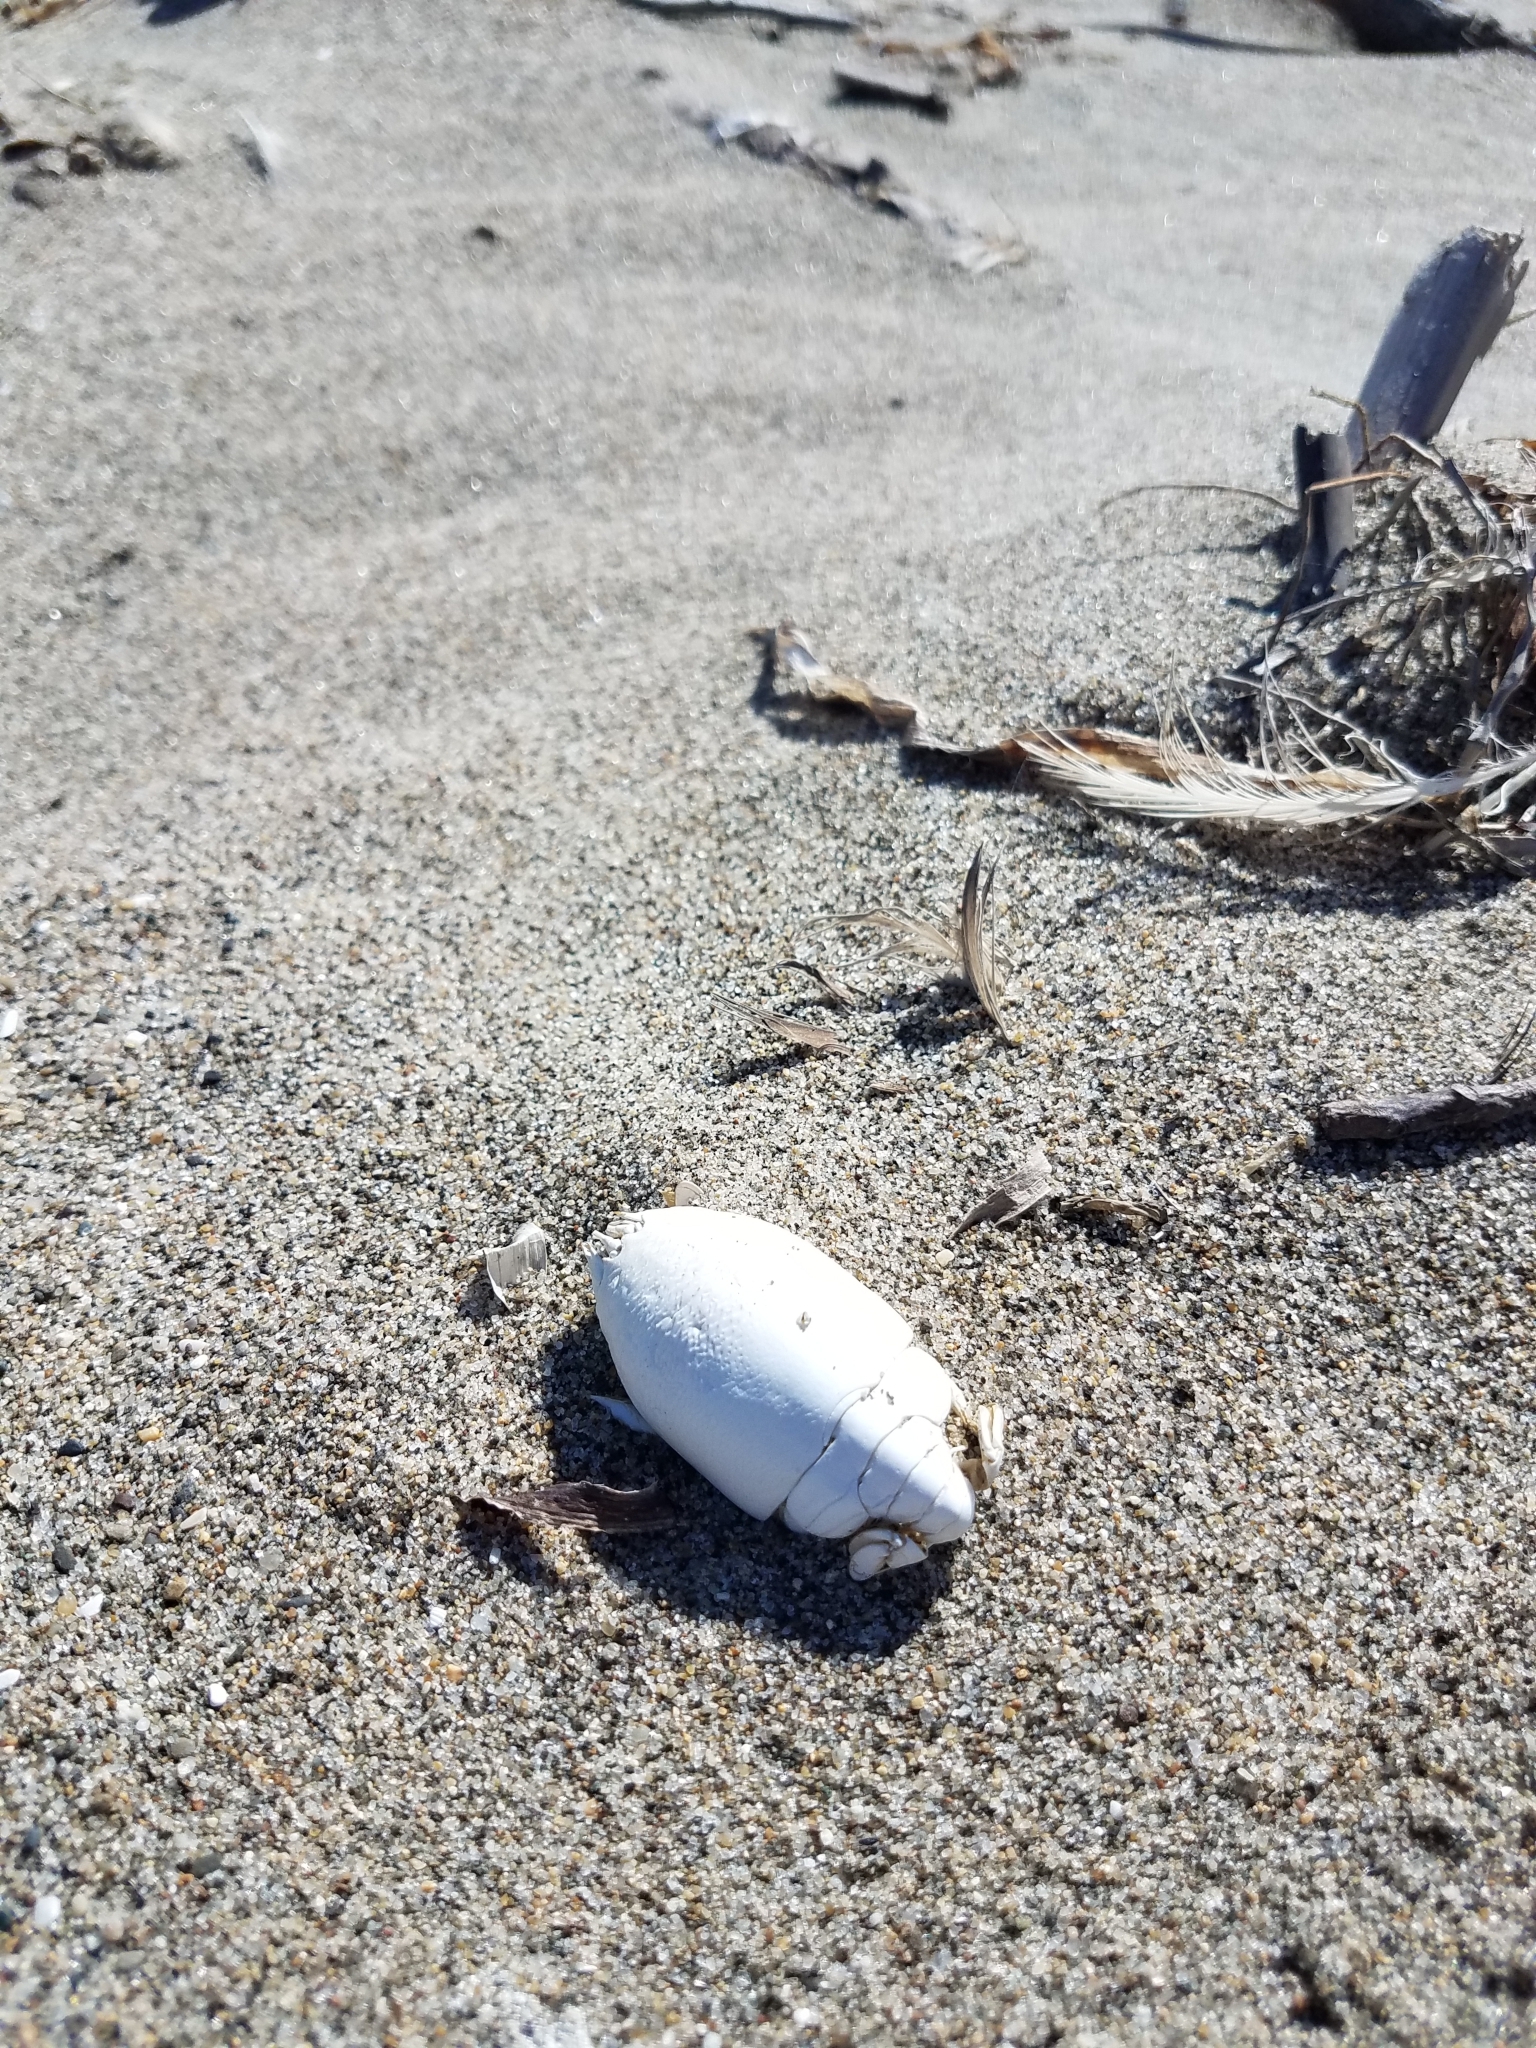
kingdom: Animalia
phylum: Arthropoda
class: Malacostraca
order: Decapoda
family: Hippidae
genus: Emerita
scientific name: Emerita analoga
